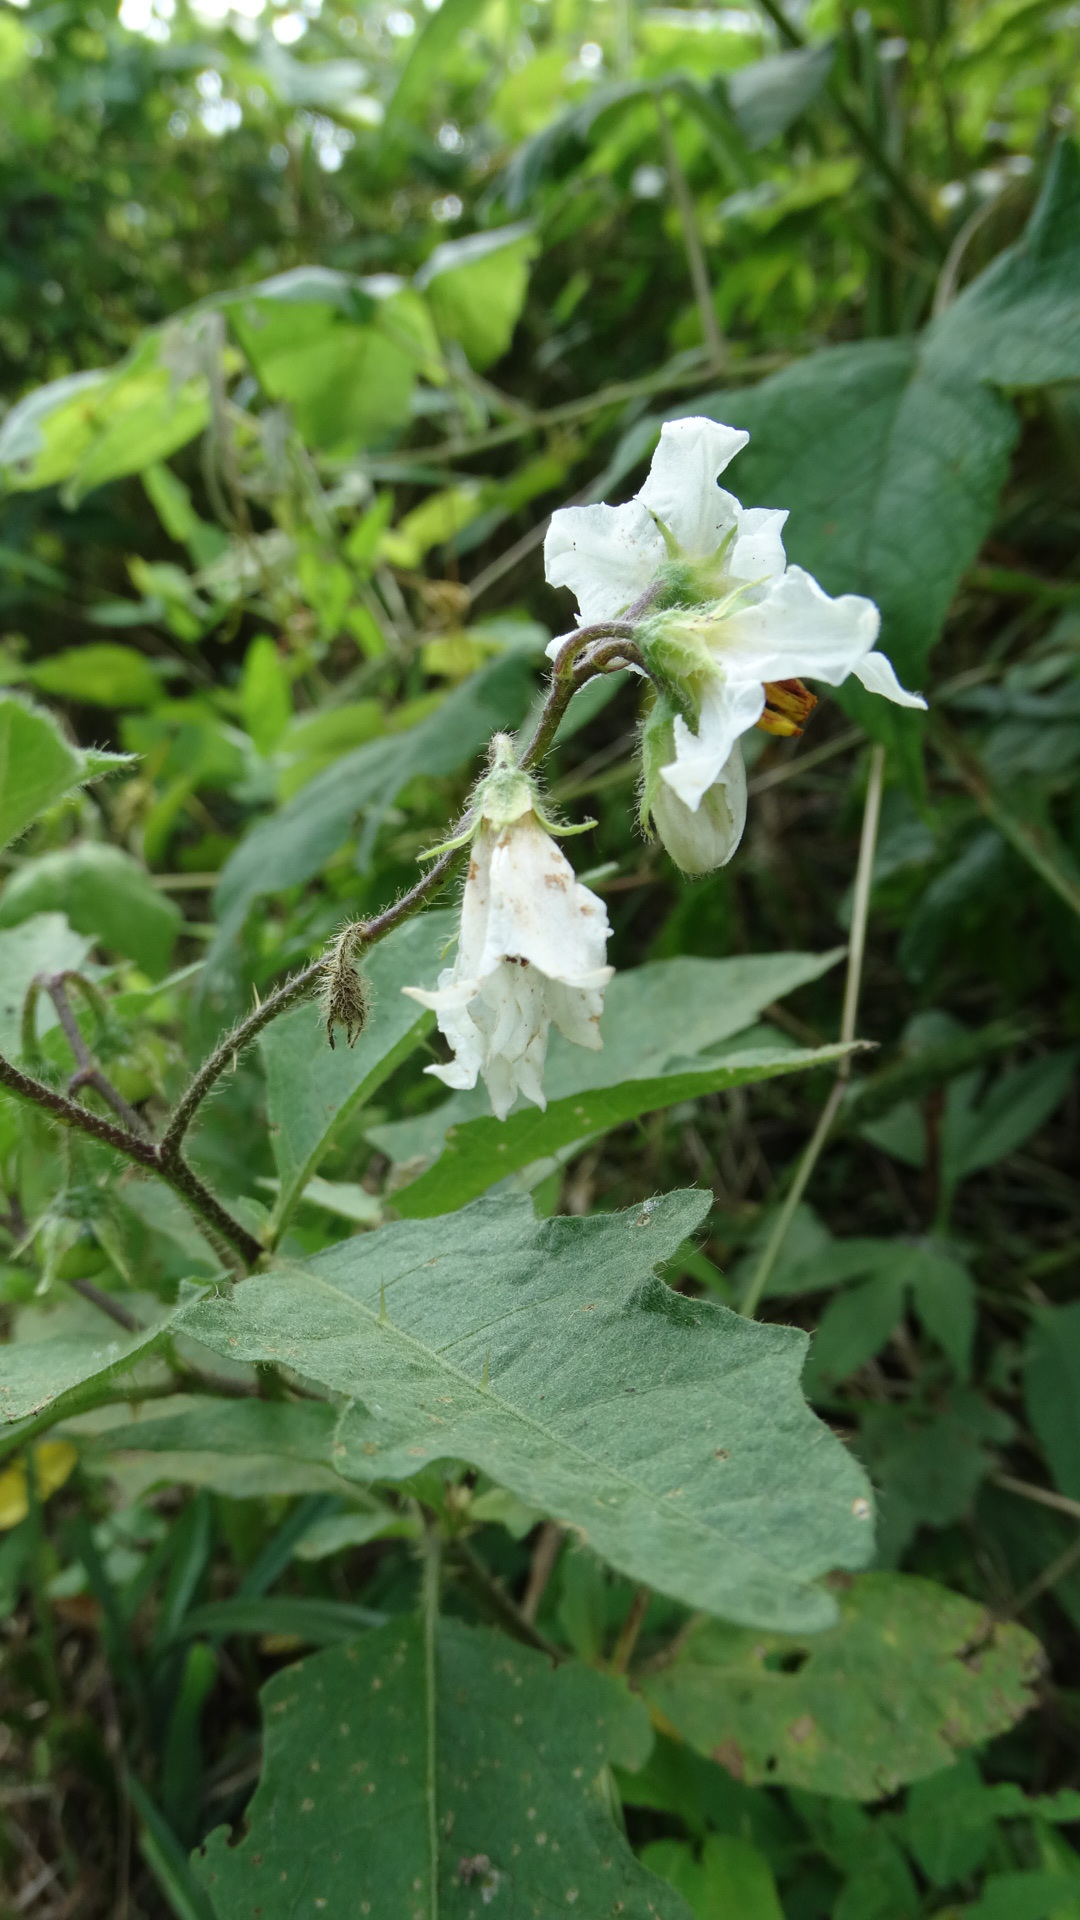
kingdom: Plantae
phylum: Tracheophyta
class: Magnoliopsida
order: Solanales
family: Solanaceae
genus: Solanum
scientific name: Solanum carolinense
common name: Horse-nettle
